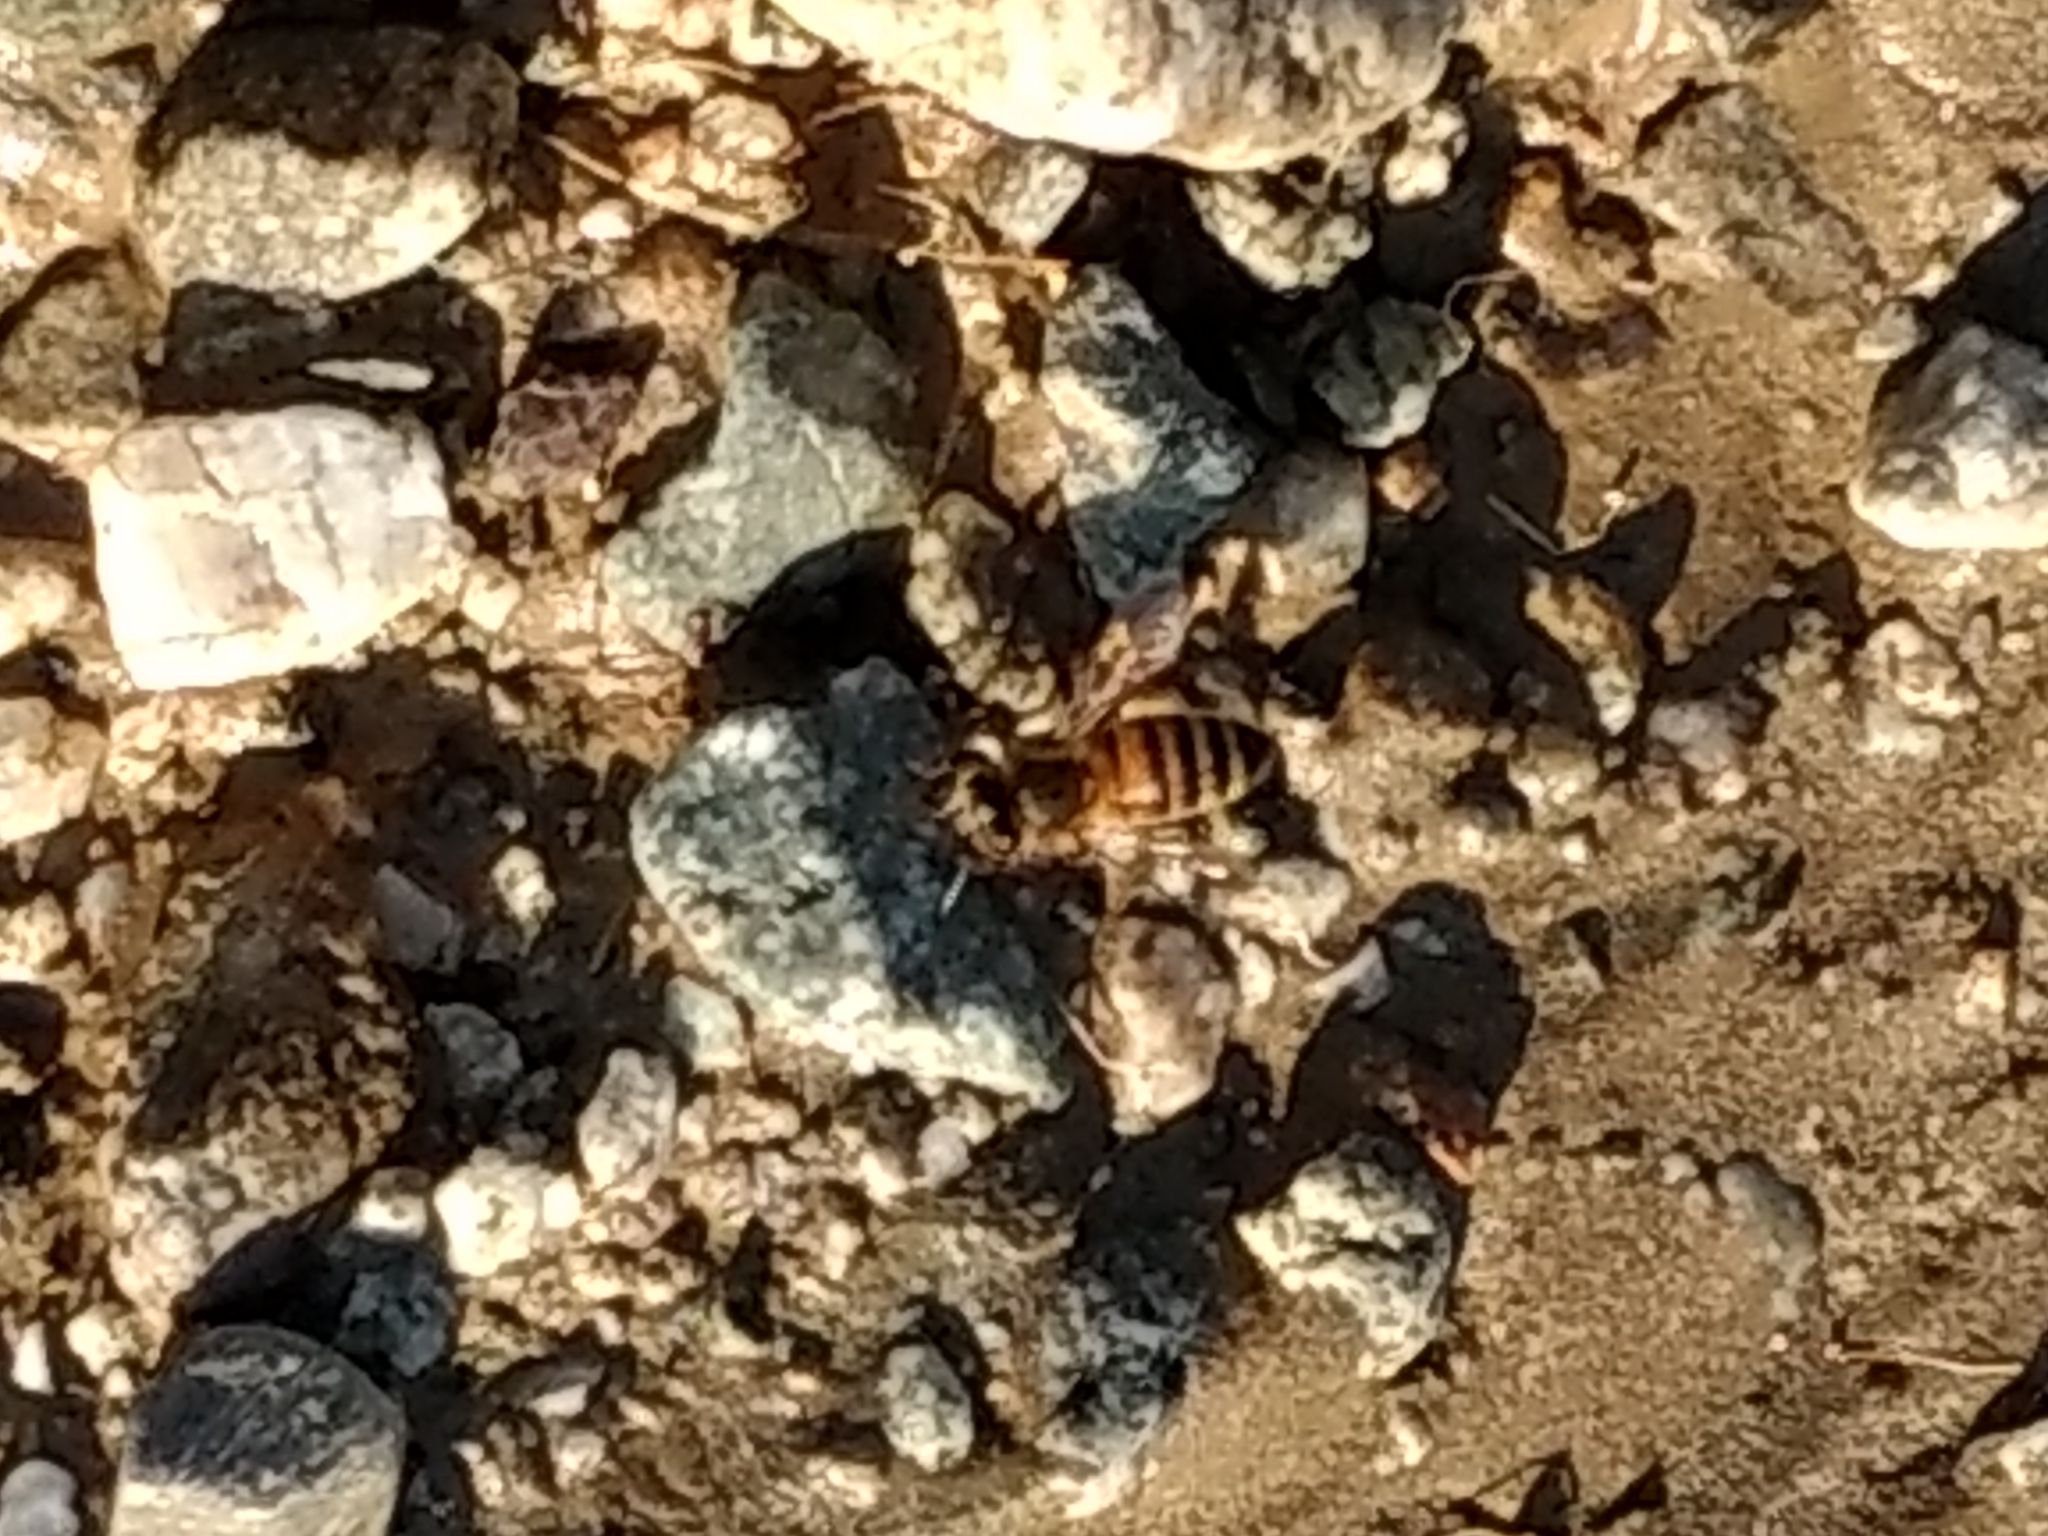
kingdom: Animalia
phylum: Arthropoda
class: Insecta
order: Hymenoptera
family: Apidae
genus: Apis
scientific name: Apis mellifera
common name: Honey bee
